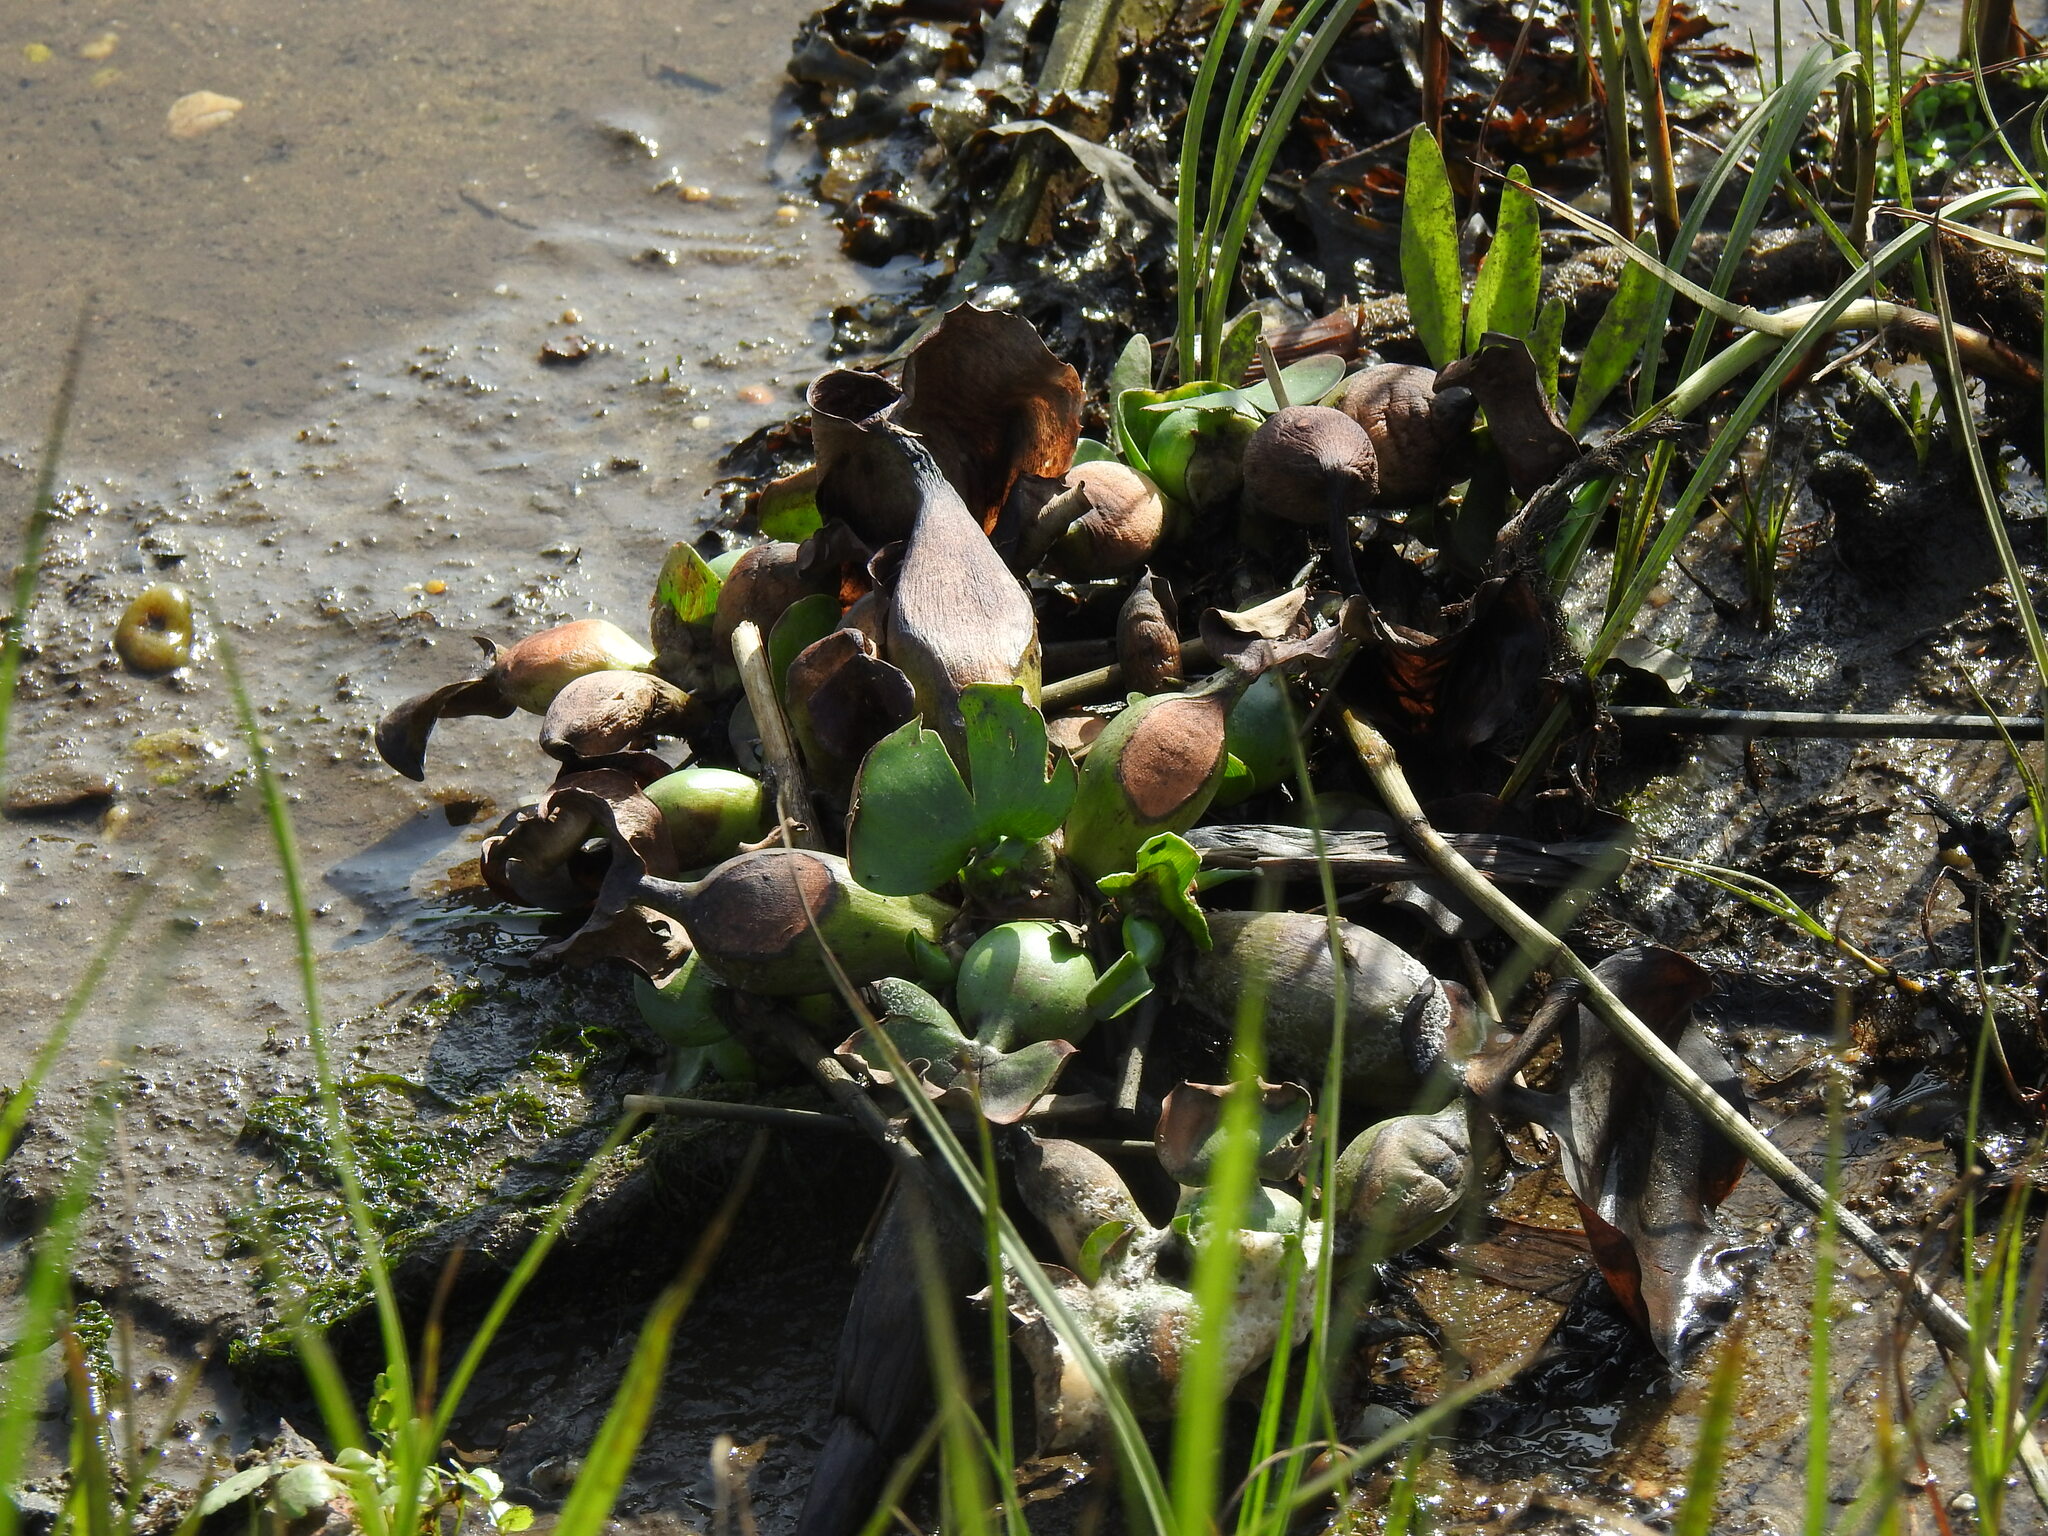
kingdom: Plantae
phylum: Tracheophyta
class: Liliopsida
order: Commelinales
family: Pontederiaceae
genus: Pontederia
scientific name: Pontederia crassipes
